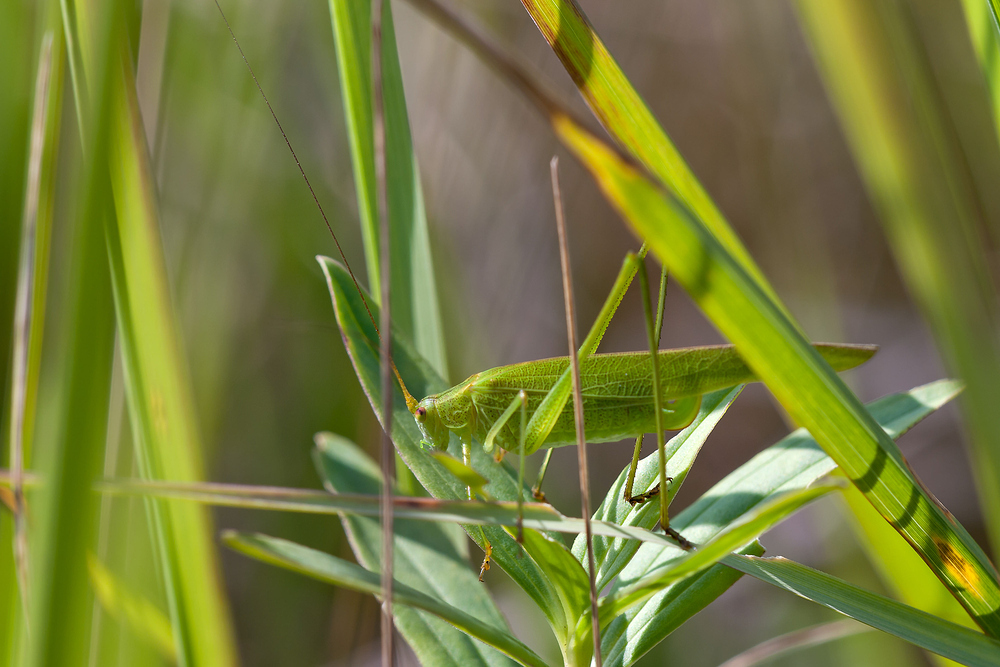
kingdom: Animalia
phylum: Arthropoda
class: Insecta
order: Orthoptera
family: Tettigoniidae
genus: Phaneroptera
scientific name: Phaneroptera falcata
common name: Sickle-bearing bush-cricket
